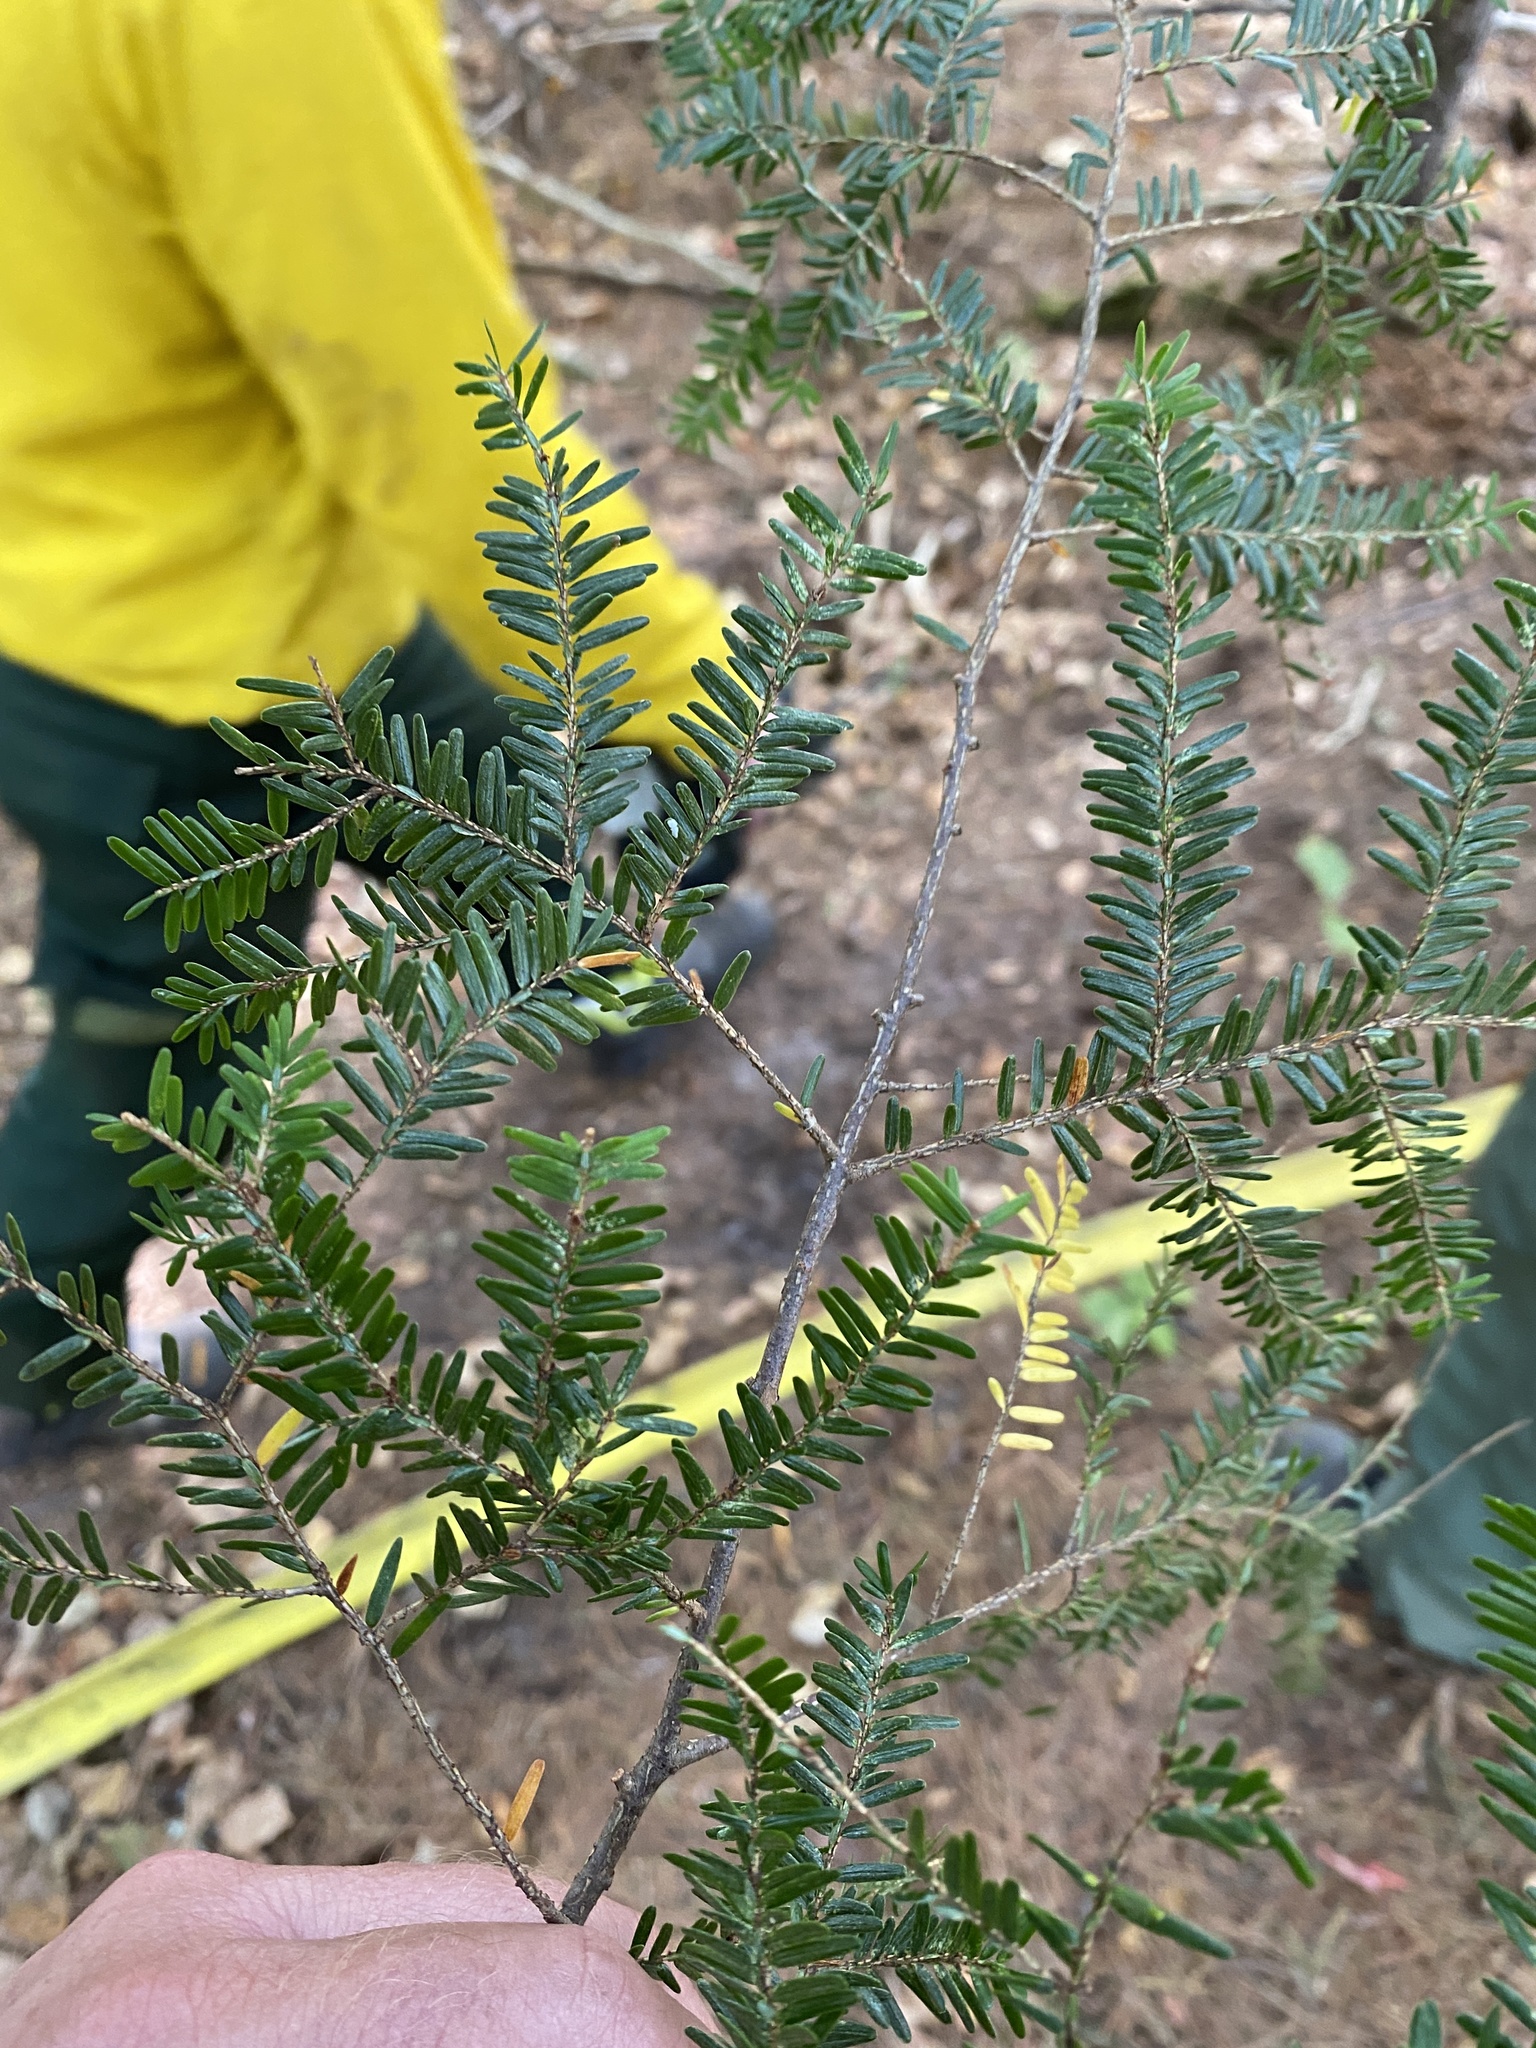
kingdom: Plantae
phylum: Tracheophyta
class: Pinopsida
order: Pinales
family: Pinaceae
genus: Tsuga
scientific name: Tsuga canadensis
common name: Eastern hemlock
